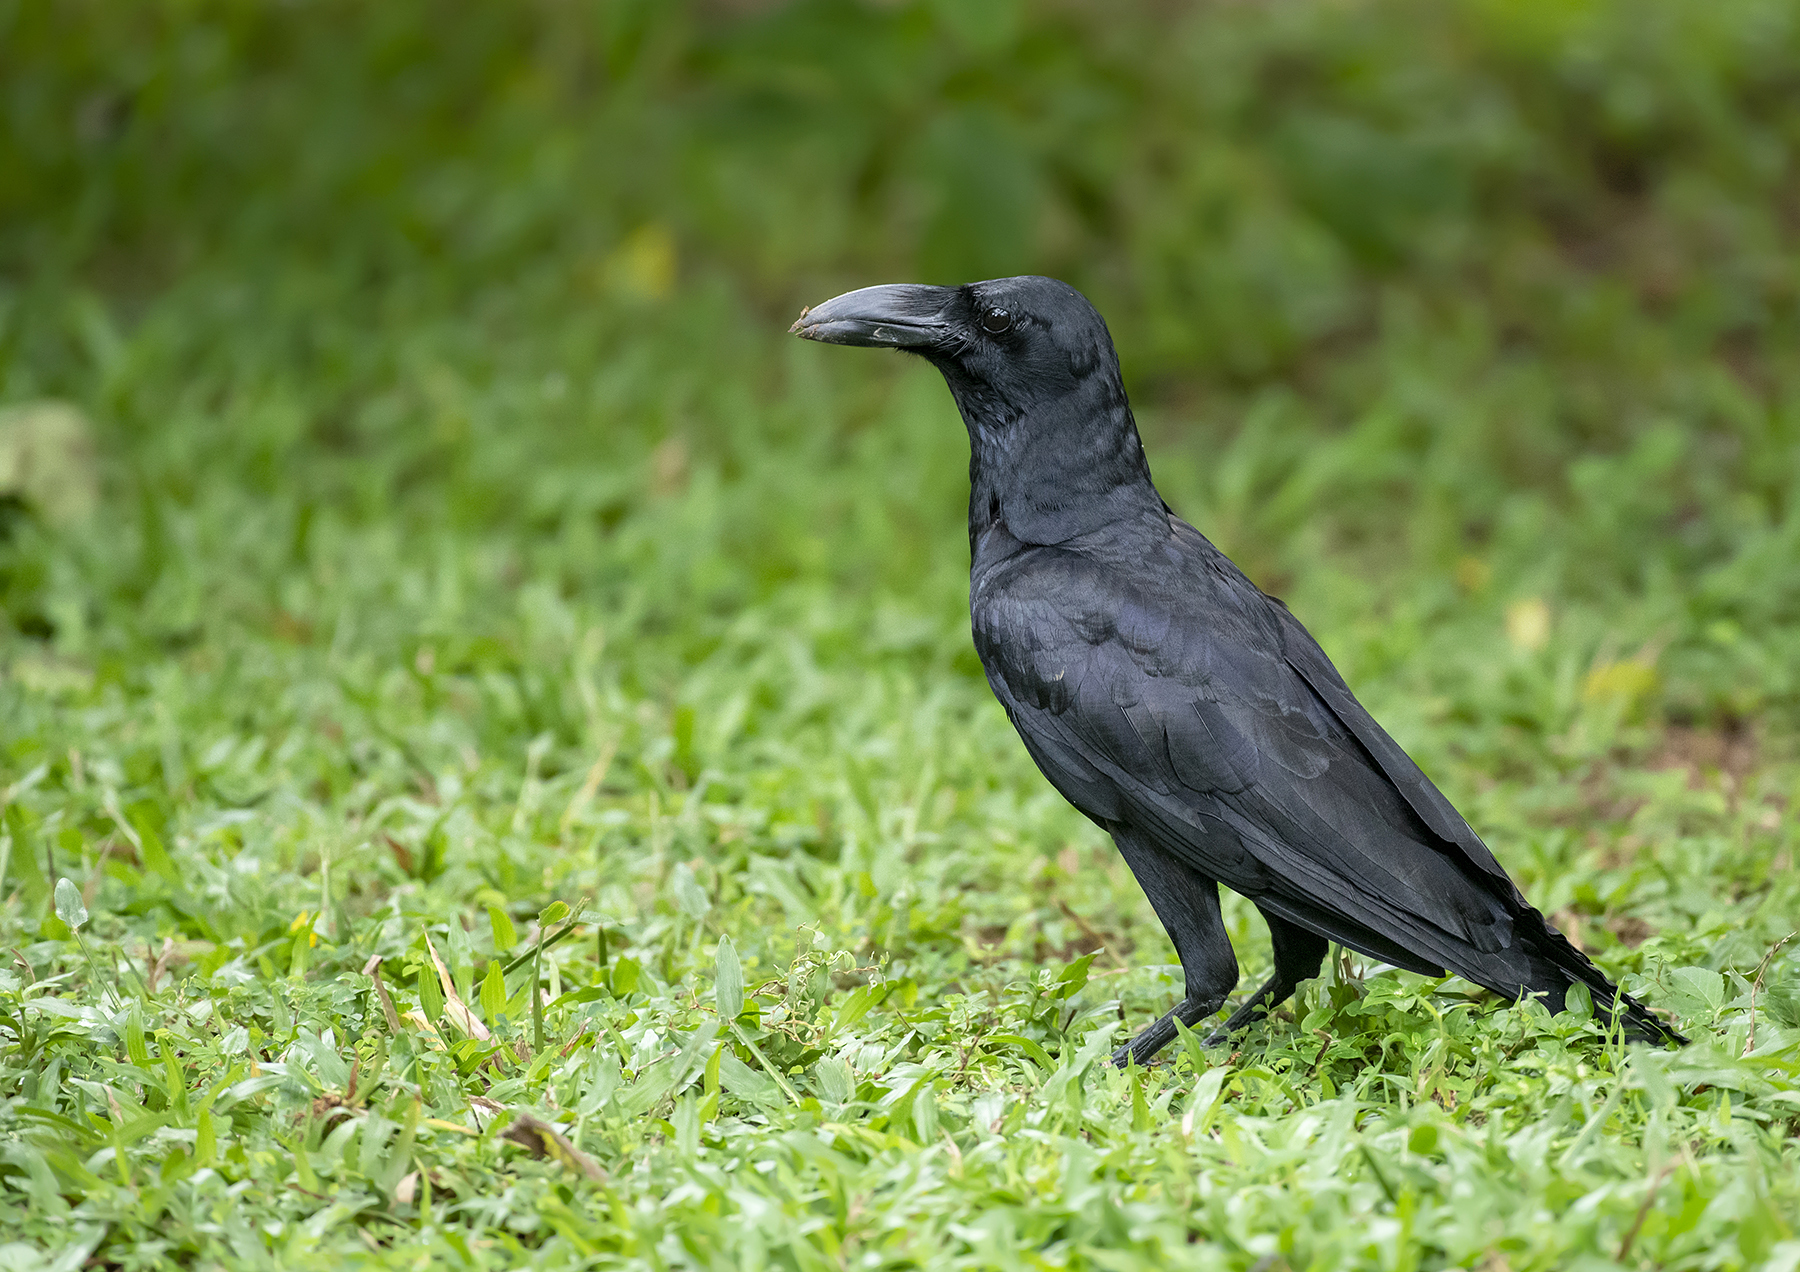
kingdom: Animalia
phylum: Chordata
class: Aves
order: Passeriformes
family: Corvidae
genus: Corvus
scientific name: Corvus macrorhynchos
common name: Large-billed crow
